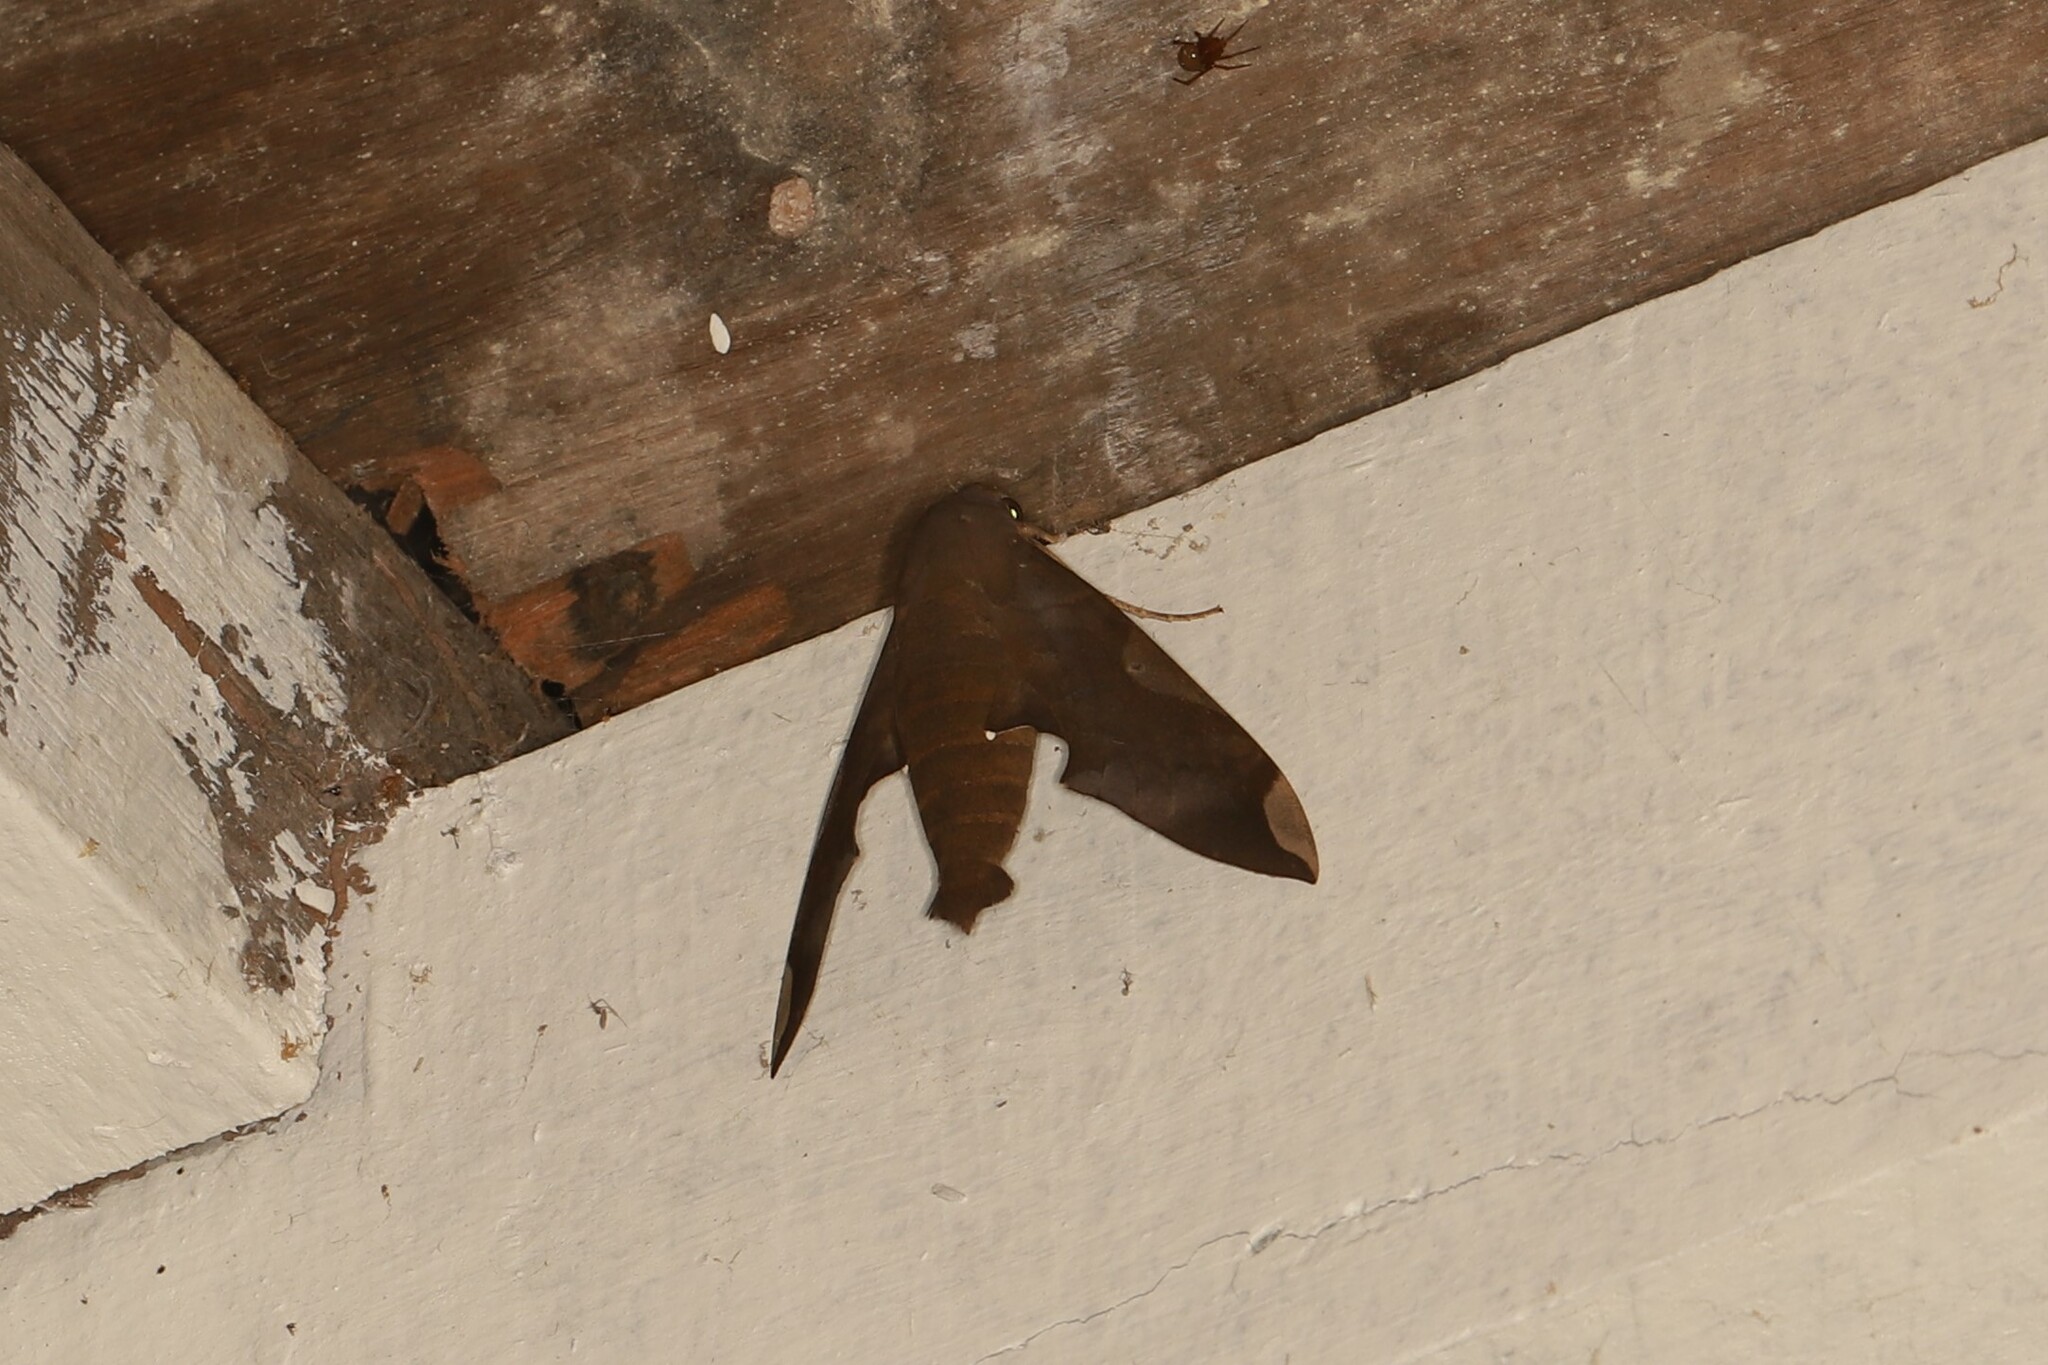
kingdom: Animalia
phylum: Arthropoda
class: Insecta
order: Lepidoptera
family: Sphingidae
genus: Pachylia
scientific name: Pachylia syces
